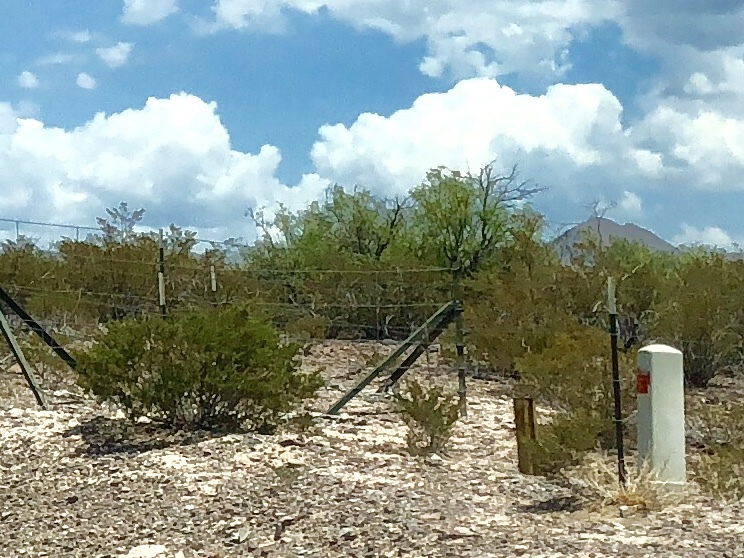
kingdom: Plantae
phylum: Tracheophyta
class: Magnoliopsida
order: Zygophyllales
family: Zygophyllaceae
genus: Larrea
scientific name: Larrea tridentata
